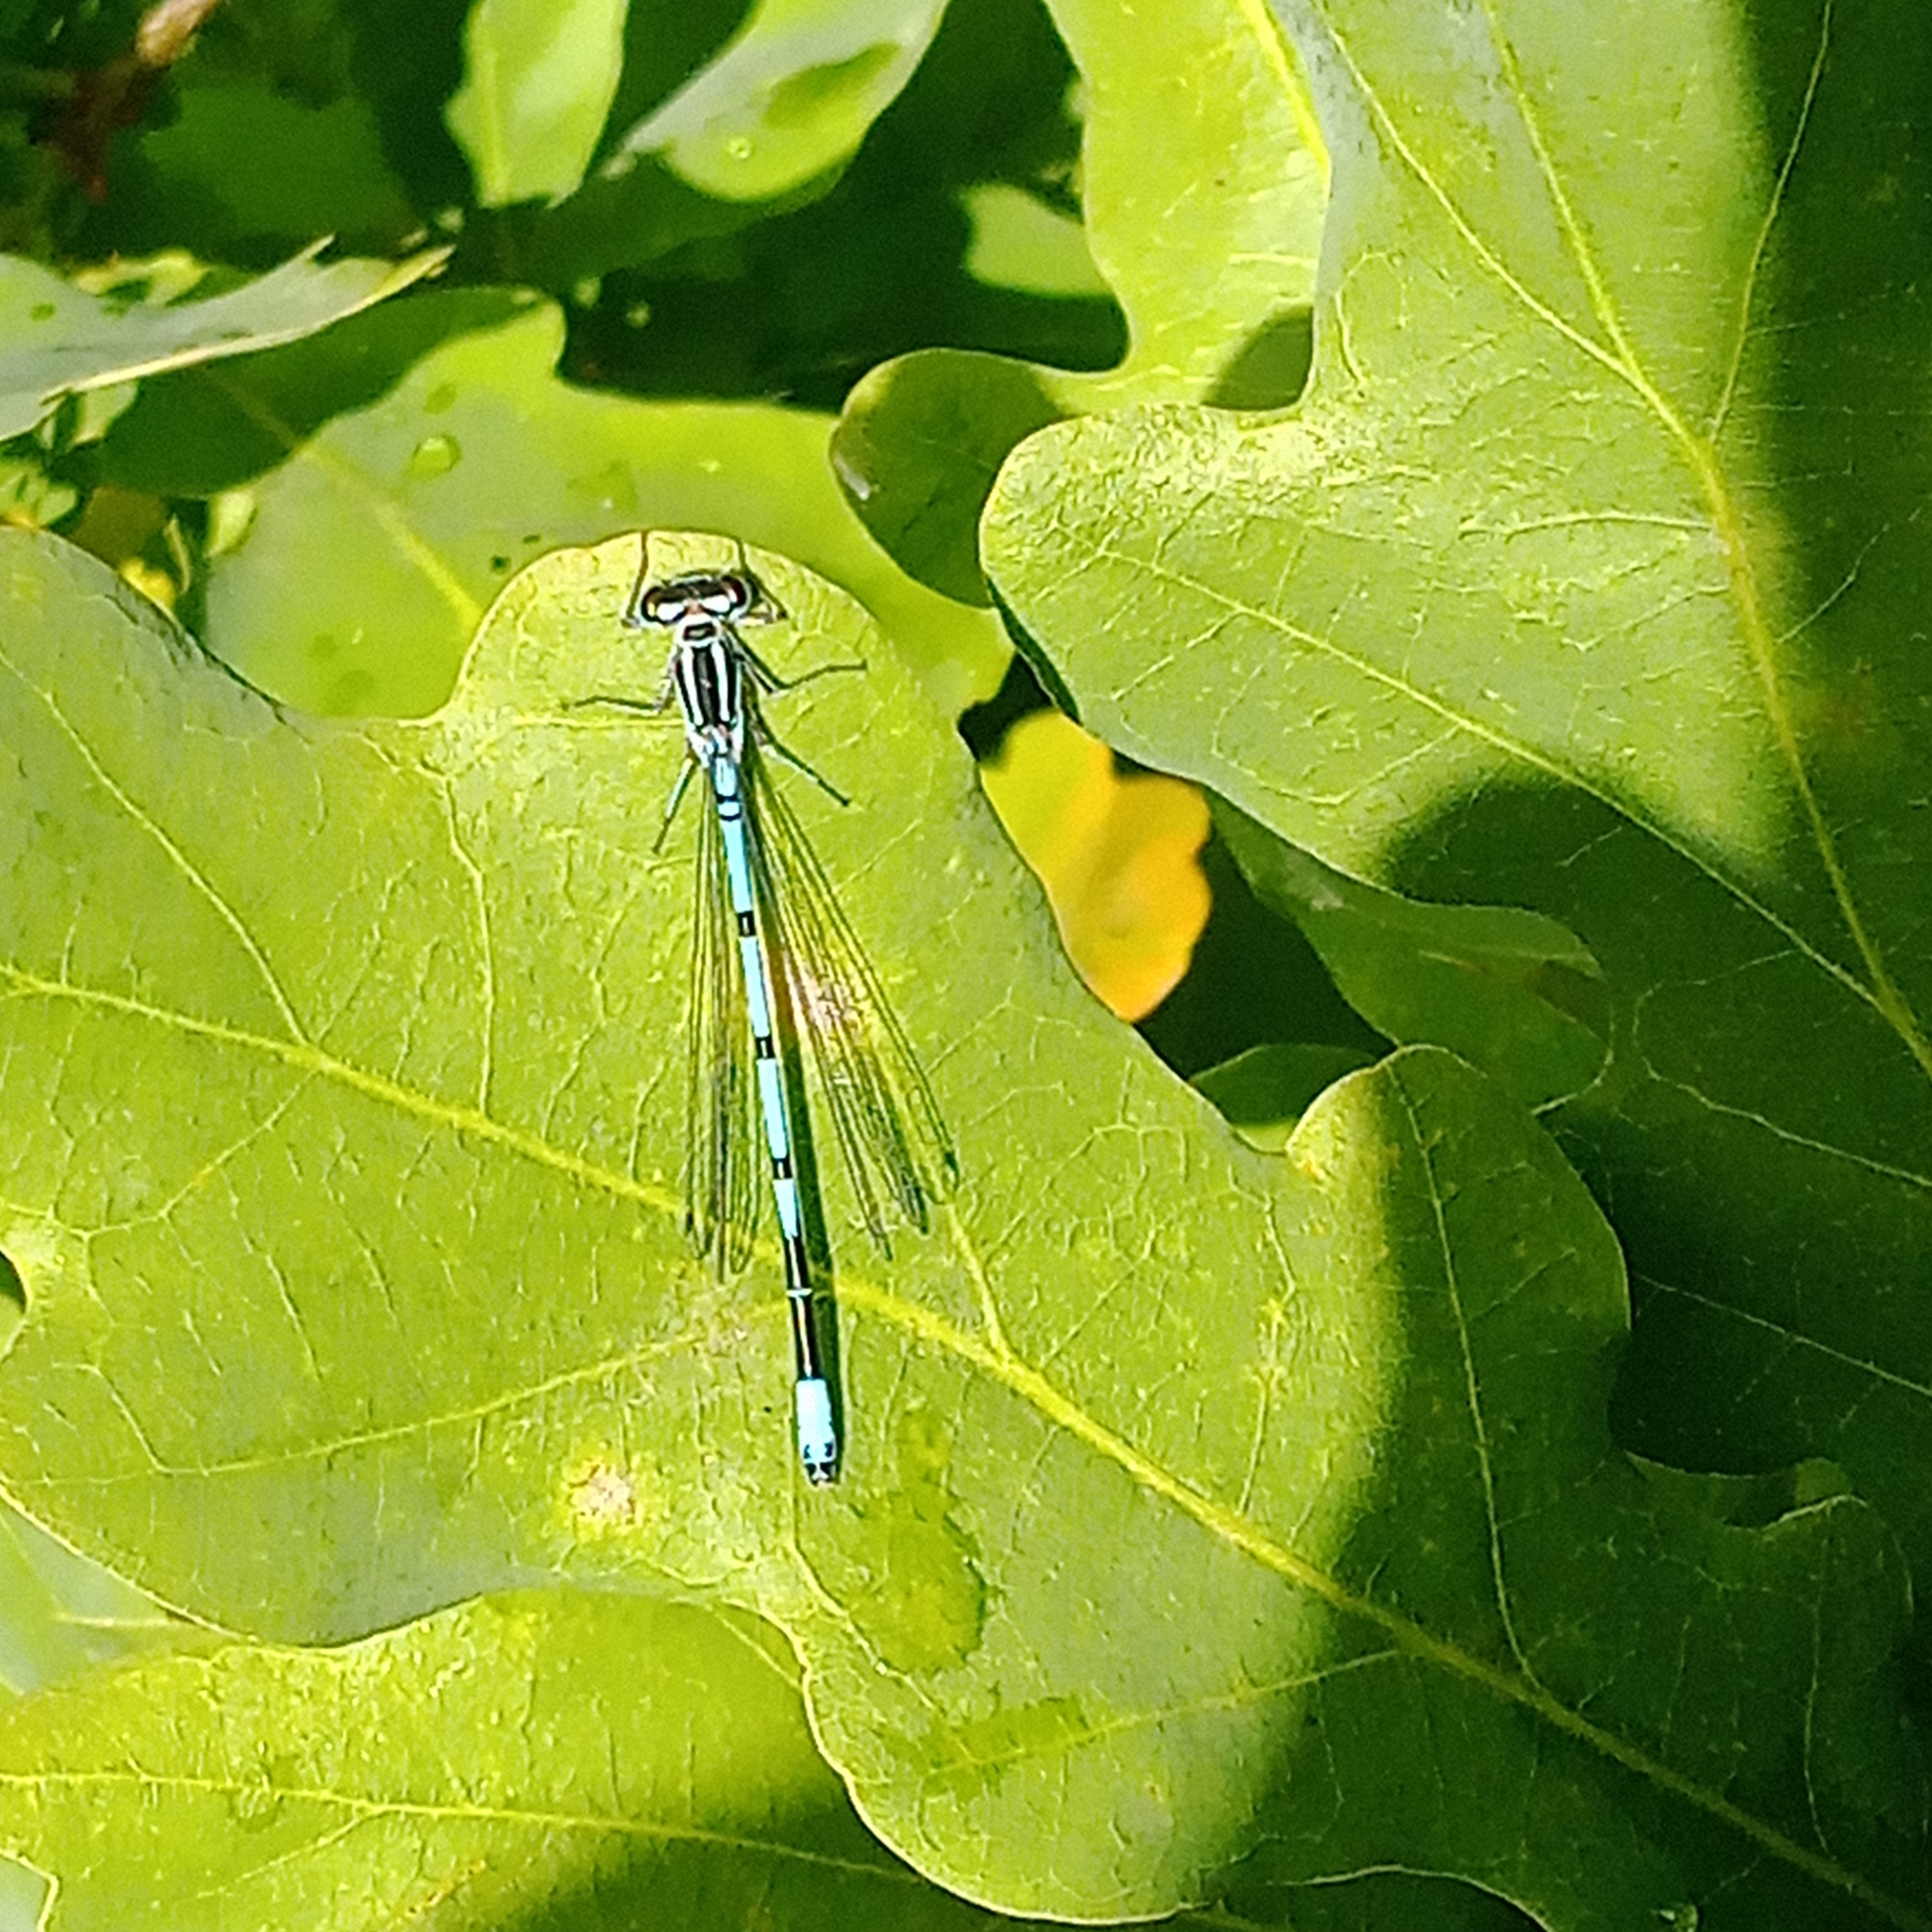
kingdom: Animalia
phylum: Arthropoda
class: Insecta
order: Odonata
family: Coenagrionidae
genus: Coenagrion
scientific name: Coenagrion puella
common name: Azure damselfly
